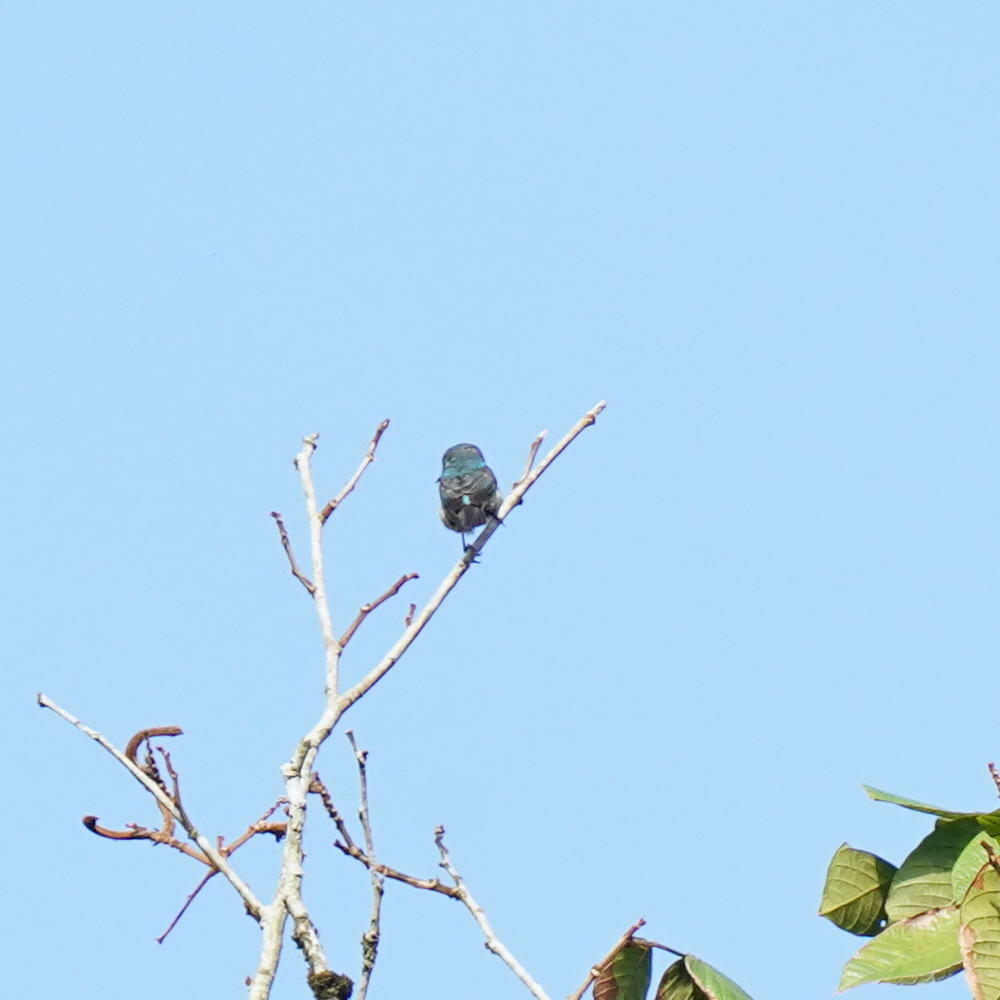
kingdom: Animalia
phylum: Chordata
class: Aves
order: Passeriformes
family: Thraupidae
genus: Dacnis
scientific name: Dacnis cayana
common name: Blue dacnis
